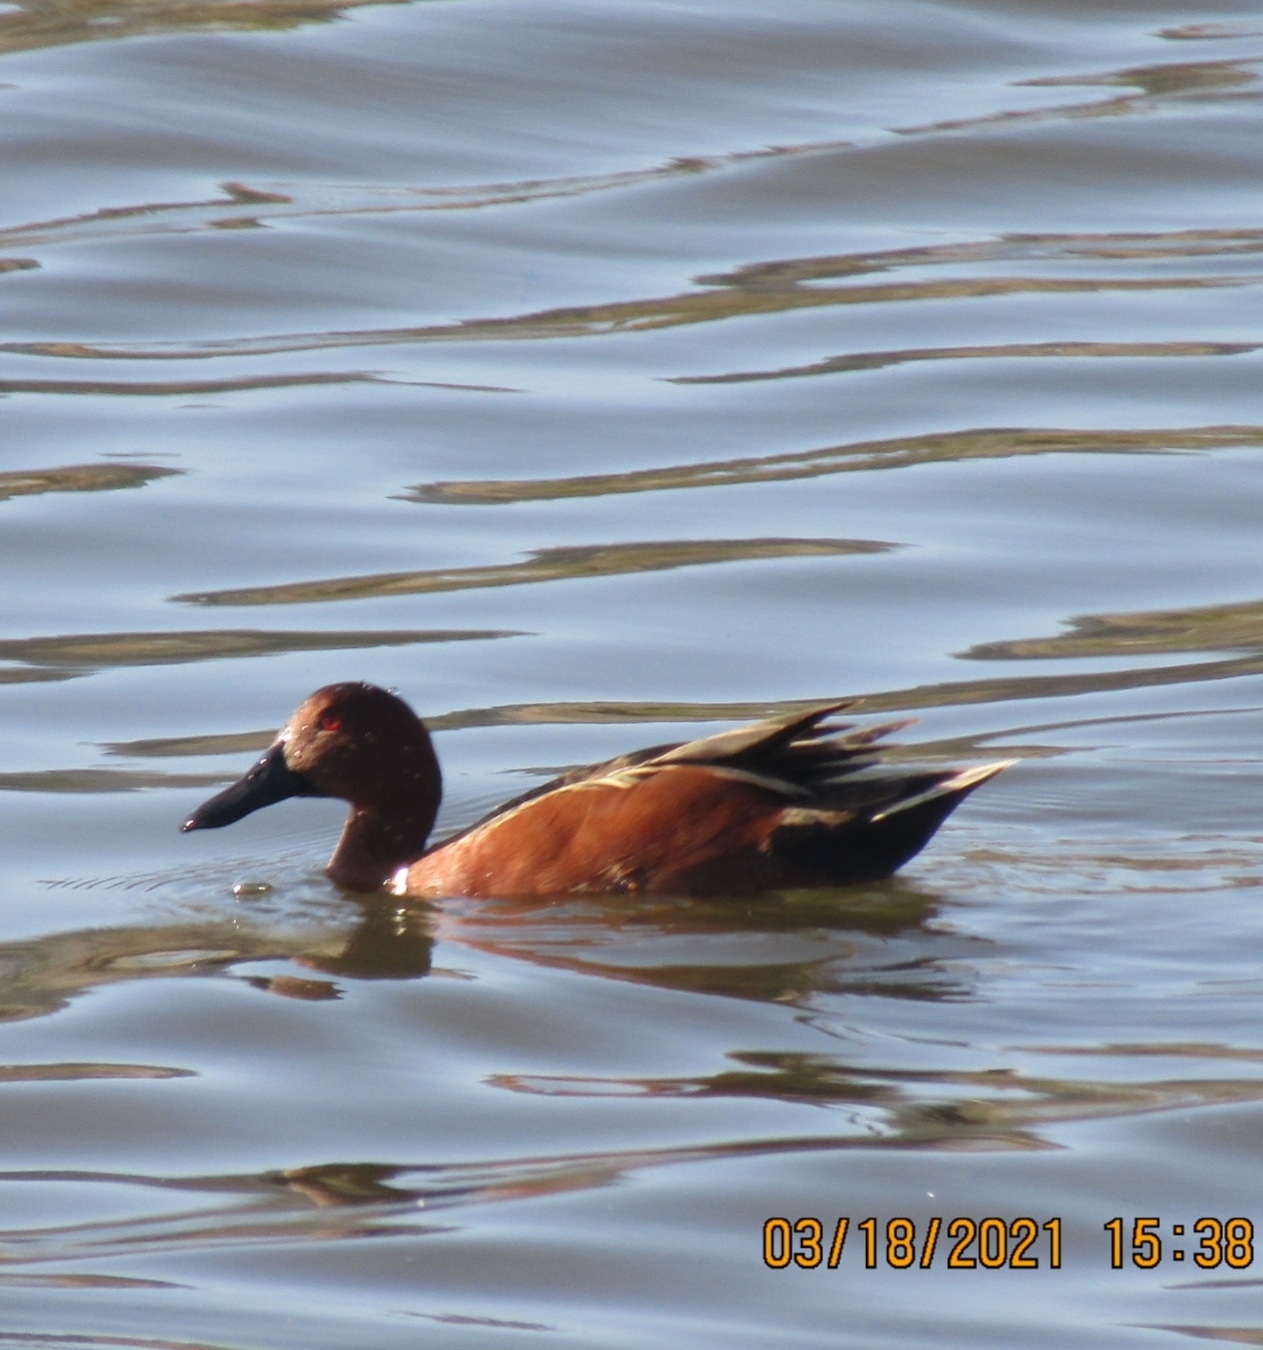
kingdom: Animalia
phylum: Chordata
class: Aves
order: Anseriformes
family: Anatidae
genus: Spatula
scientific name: Spatula cyanoptera
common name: Cinnamon teal
